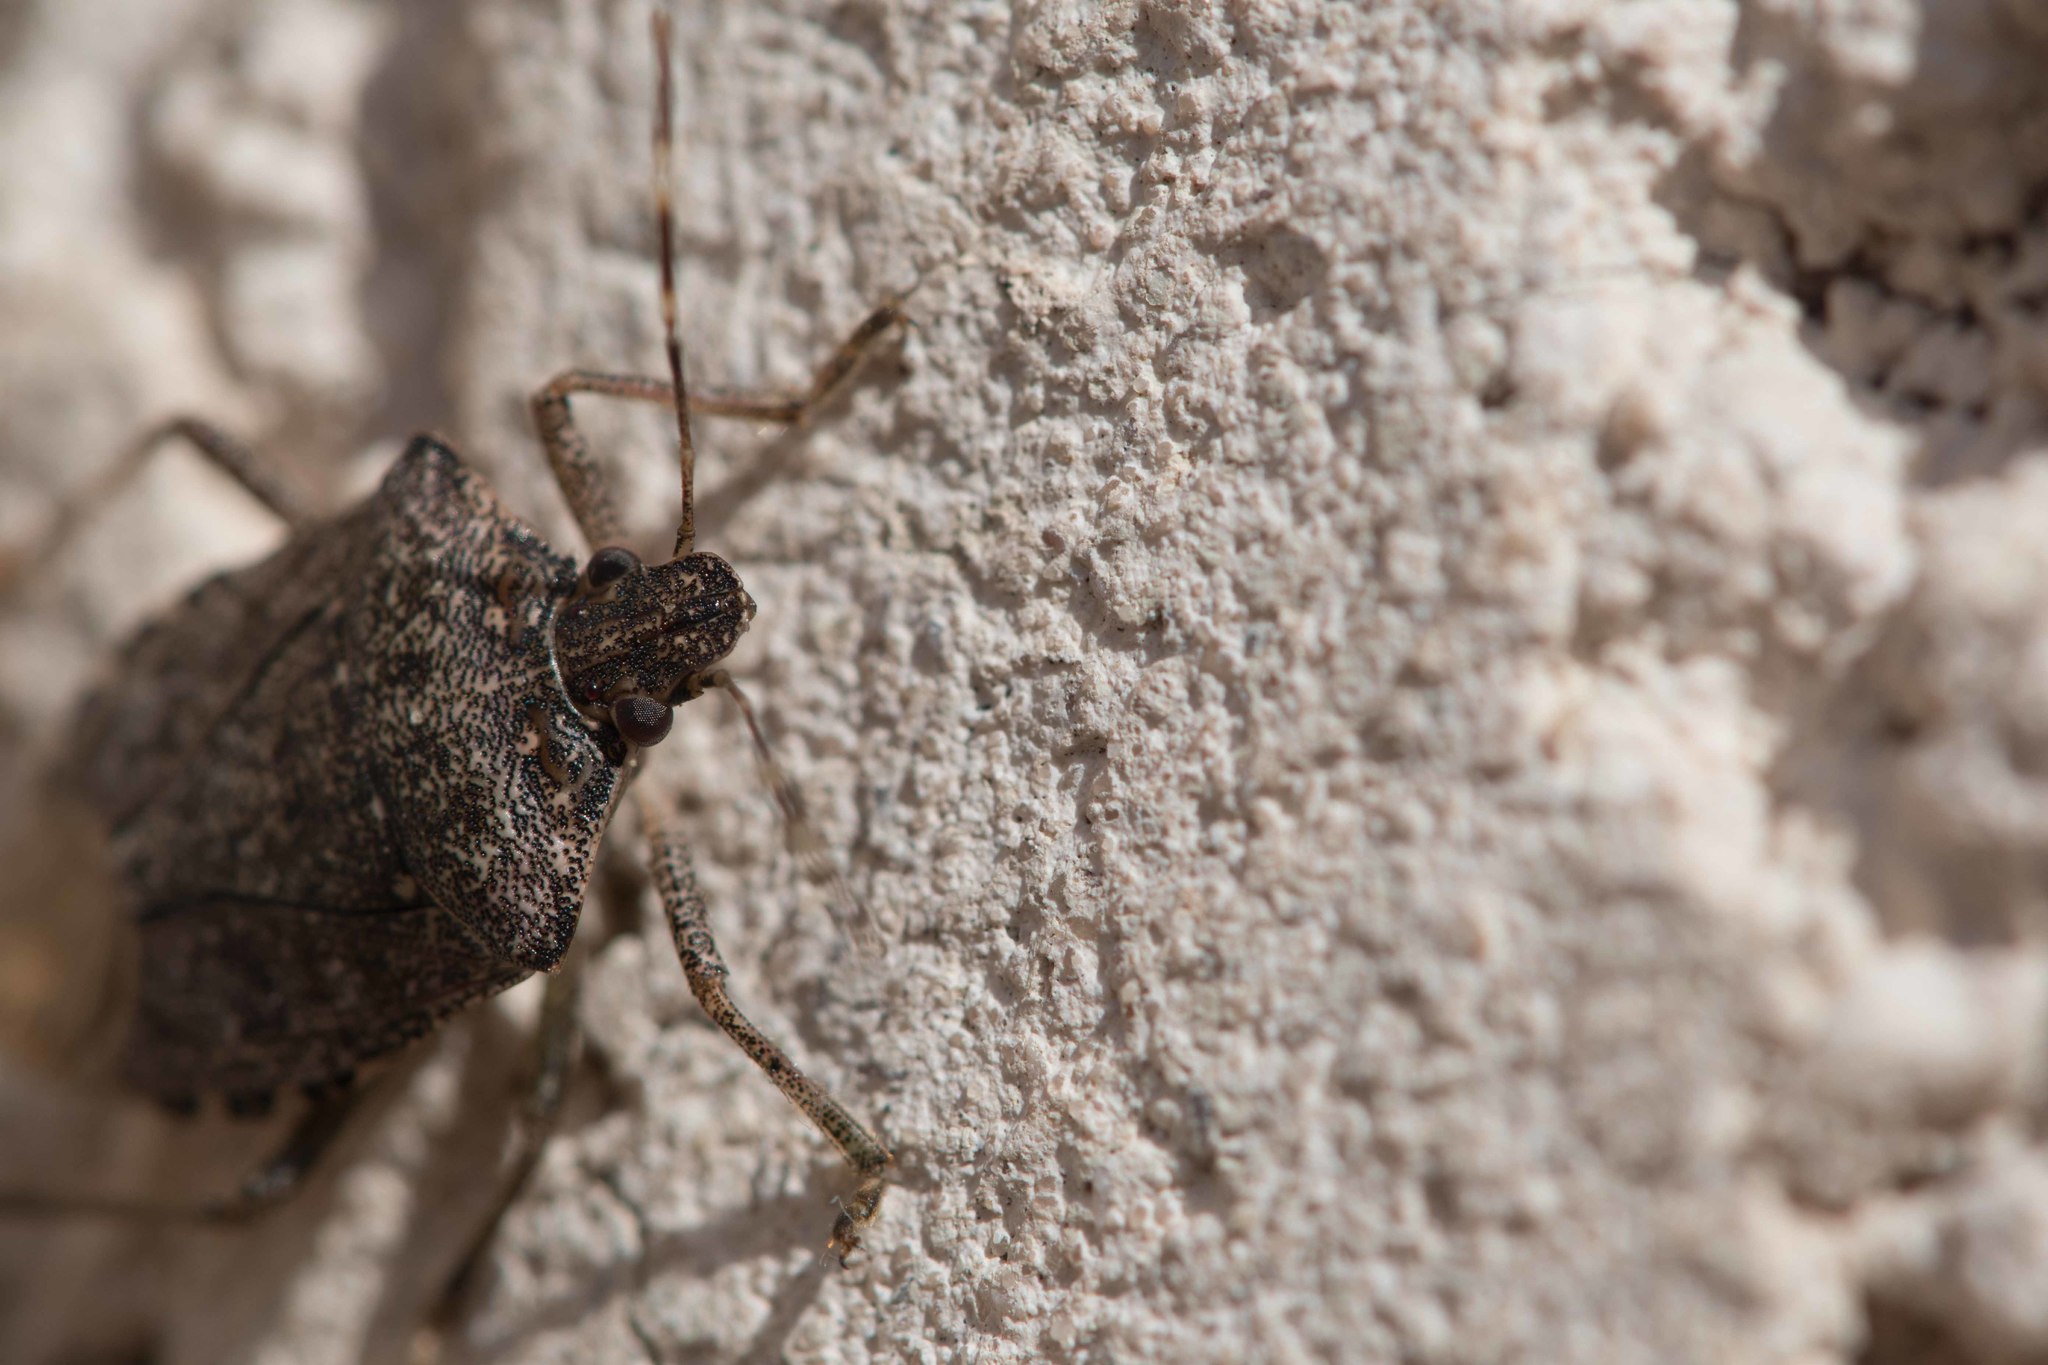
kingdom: Animalia
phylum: Arthropoda
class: Insecta
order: Hemiptera
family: Pentatomidae
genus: Halyomorpha
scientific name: Halyomorpha halys
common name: Brown marmorated stink bug
